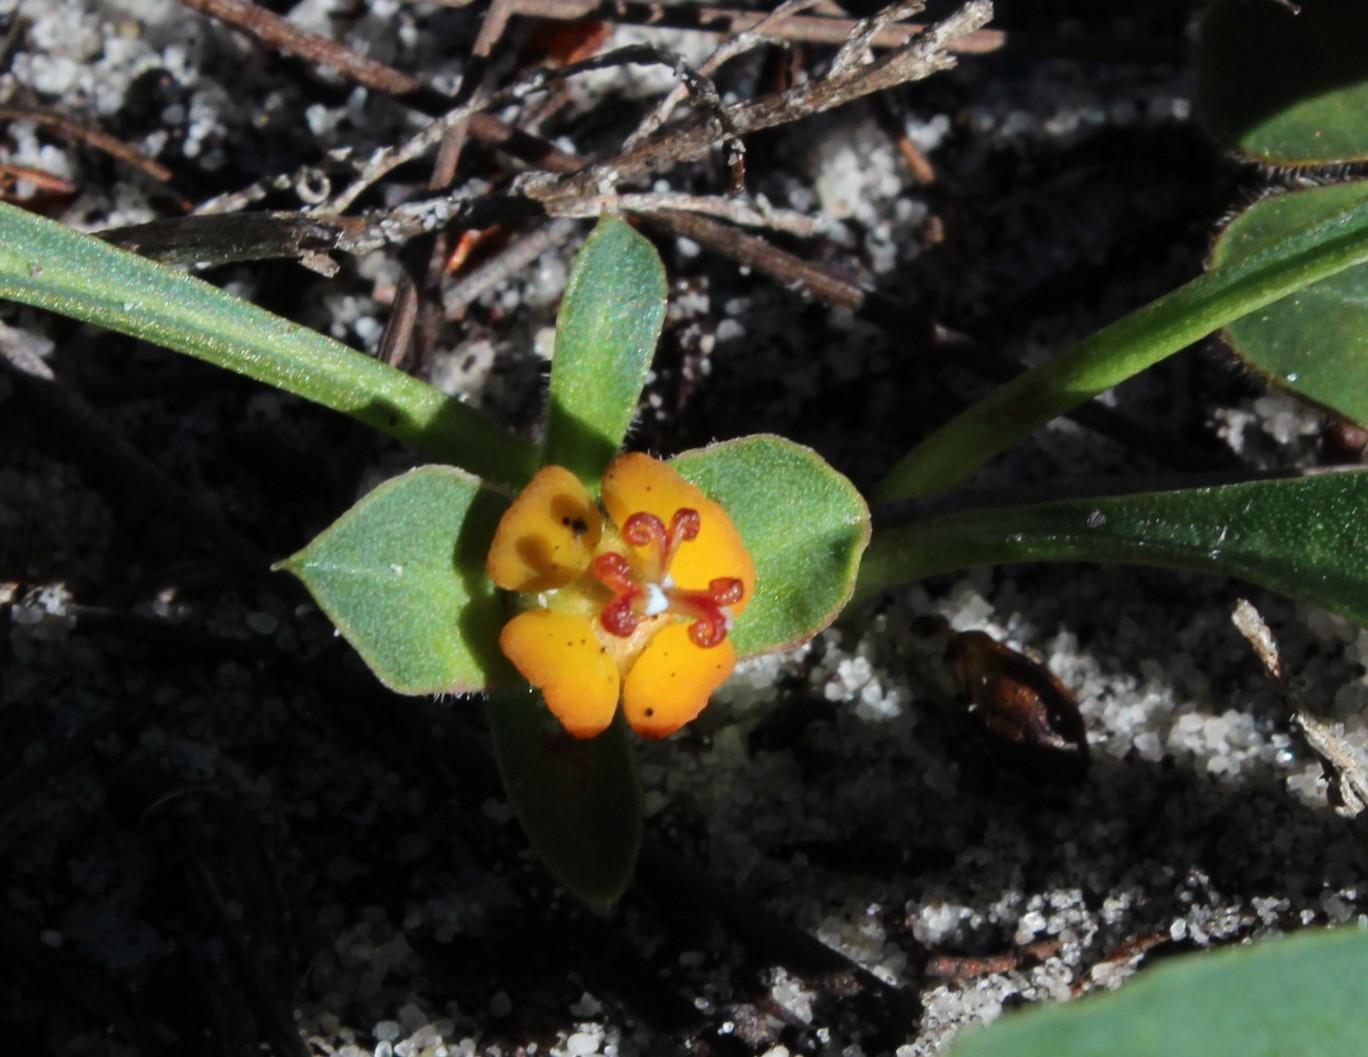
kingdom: Plantae
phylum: Tracheophyta
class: Magnoliopsida
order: Malpighiales
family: Euphorbiaceae
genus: Euphorbia
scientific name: Euphorbia tuberosa
